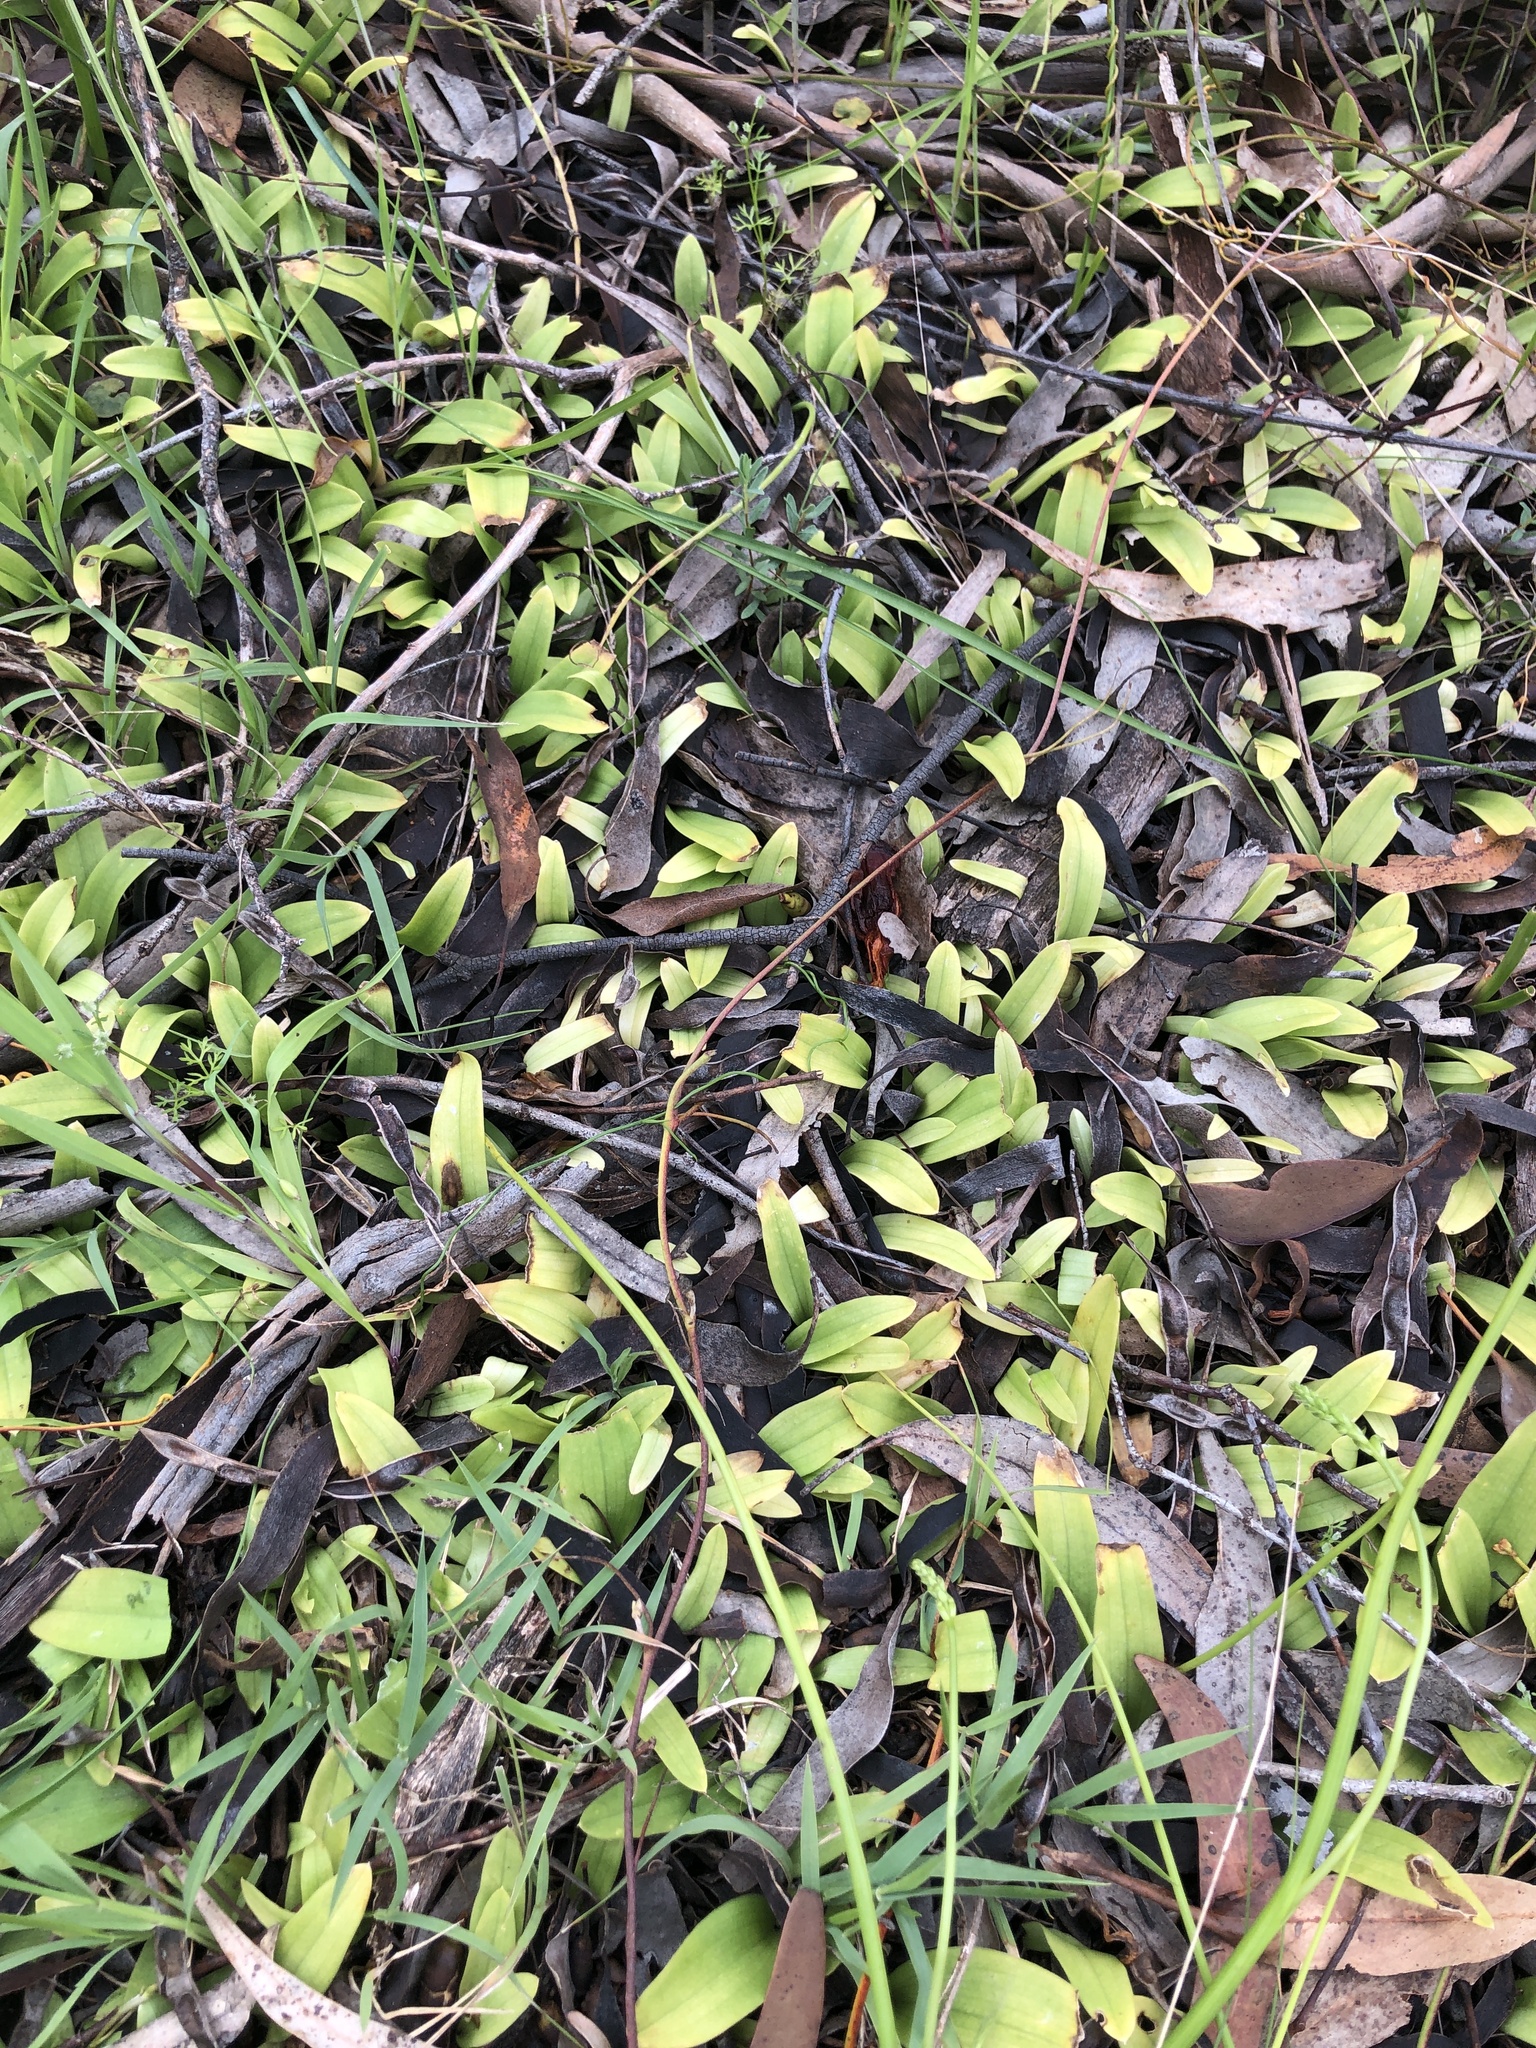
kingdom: Plantae
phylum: Tracheophyta
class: Liliopsida
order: Asparagales
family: Orchidaceae
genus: Leptoceras
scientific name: Leptoceras menziesii
